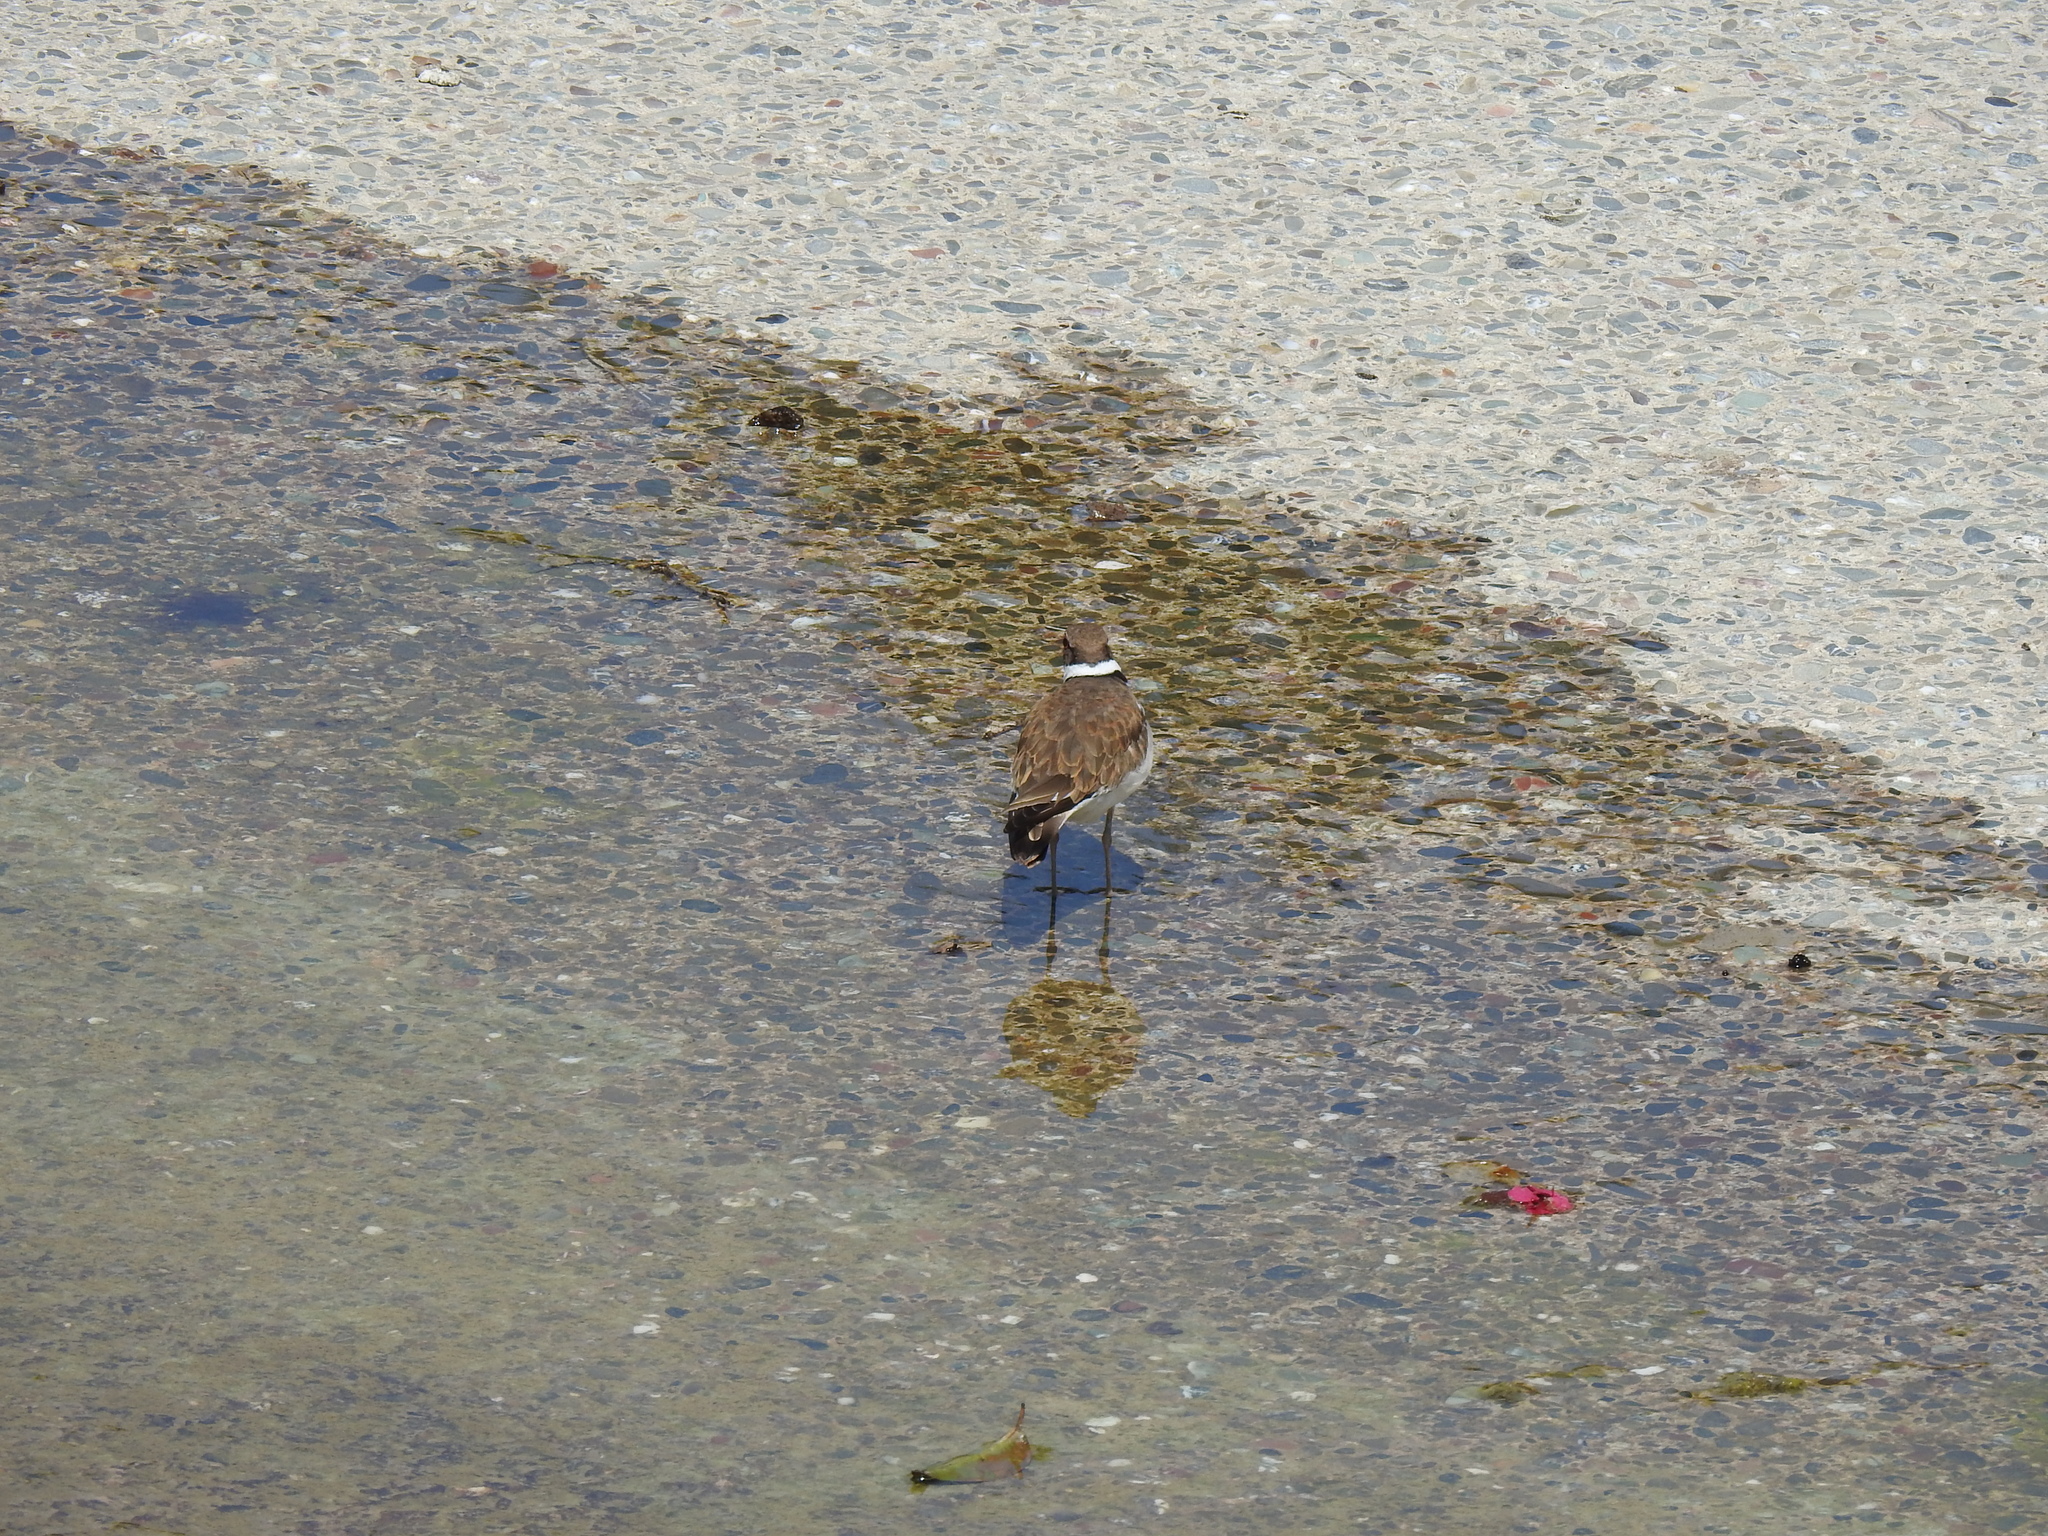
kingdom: Animalia
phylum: Chordata
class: Aves
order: Charadriiformes
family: Charadriidae
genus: Charadrius
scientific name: Charadrius vociferus
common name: Killdeer
